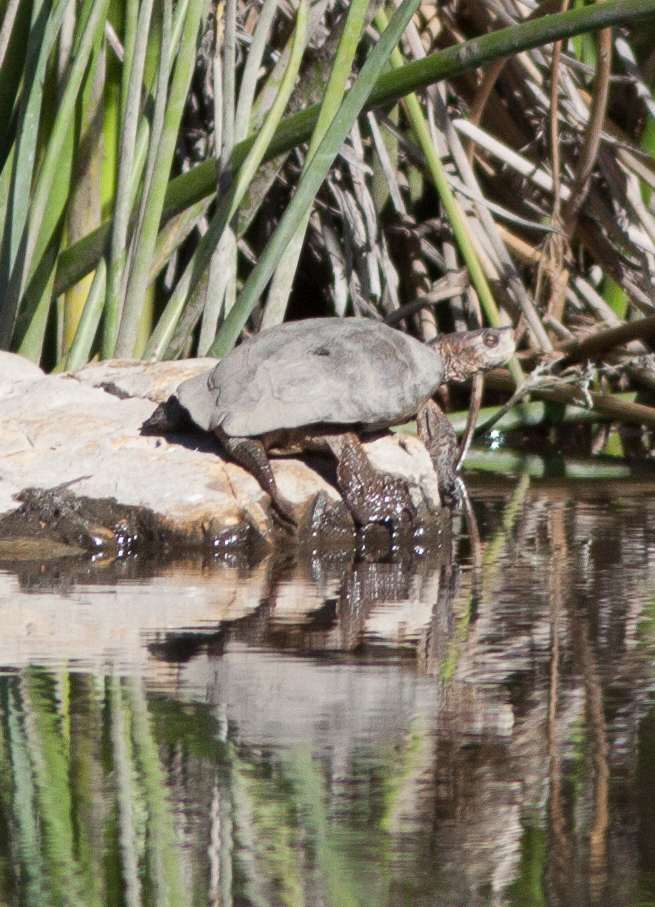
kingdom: Animalia
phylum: Chordata
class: Testudines
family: Emydidae
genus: Actinemys
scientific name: Actinemys pallida
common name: Southern pacific pond turtle
